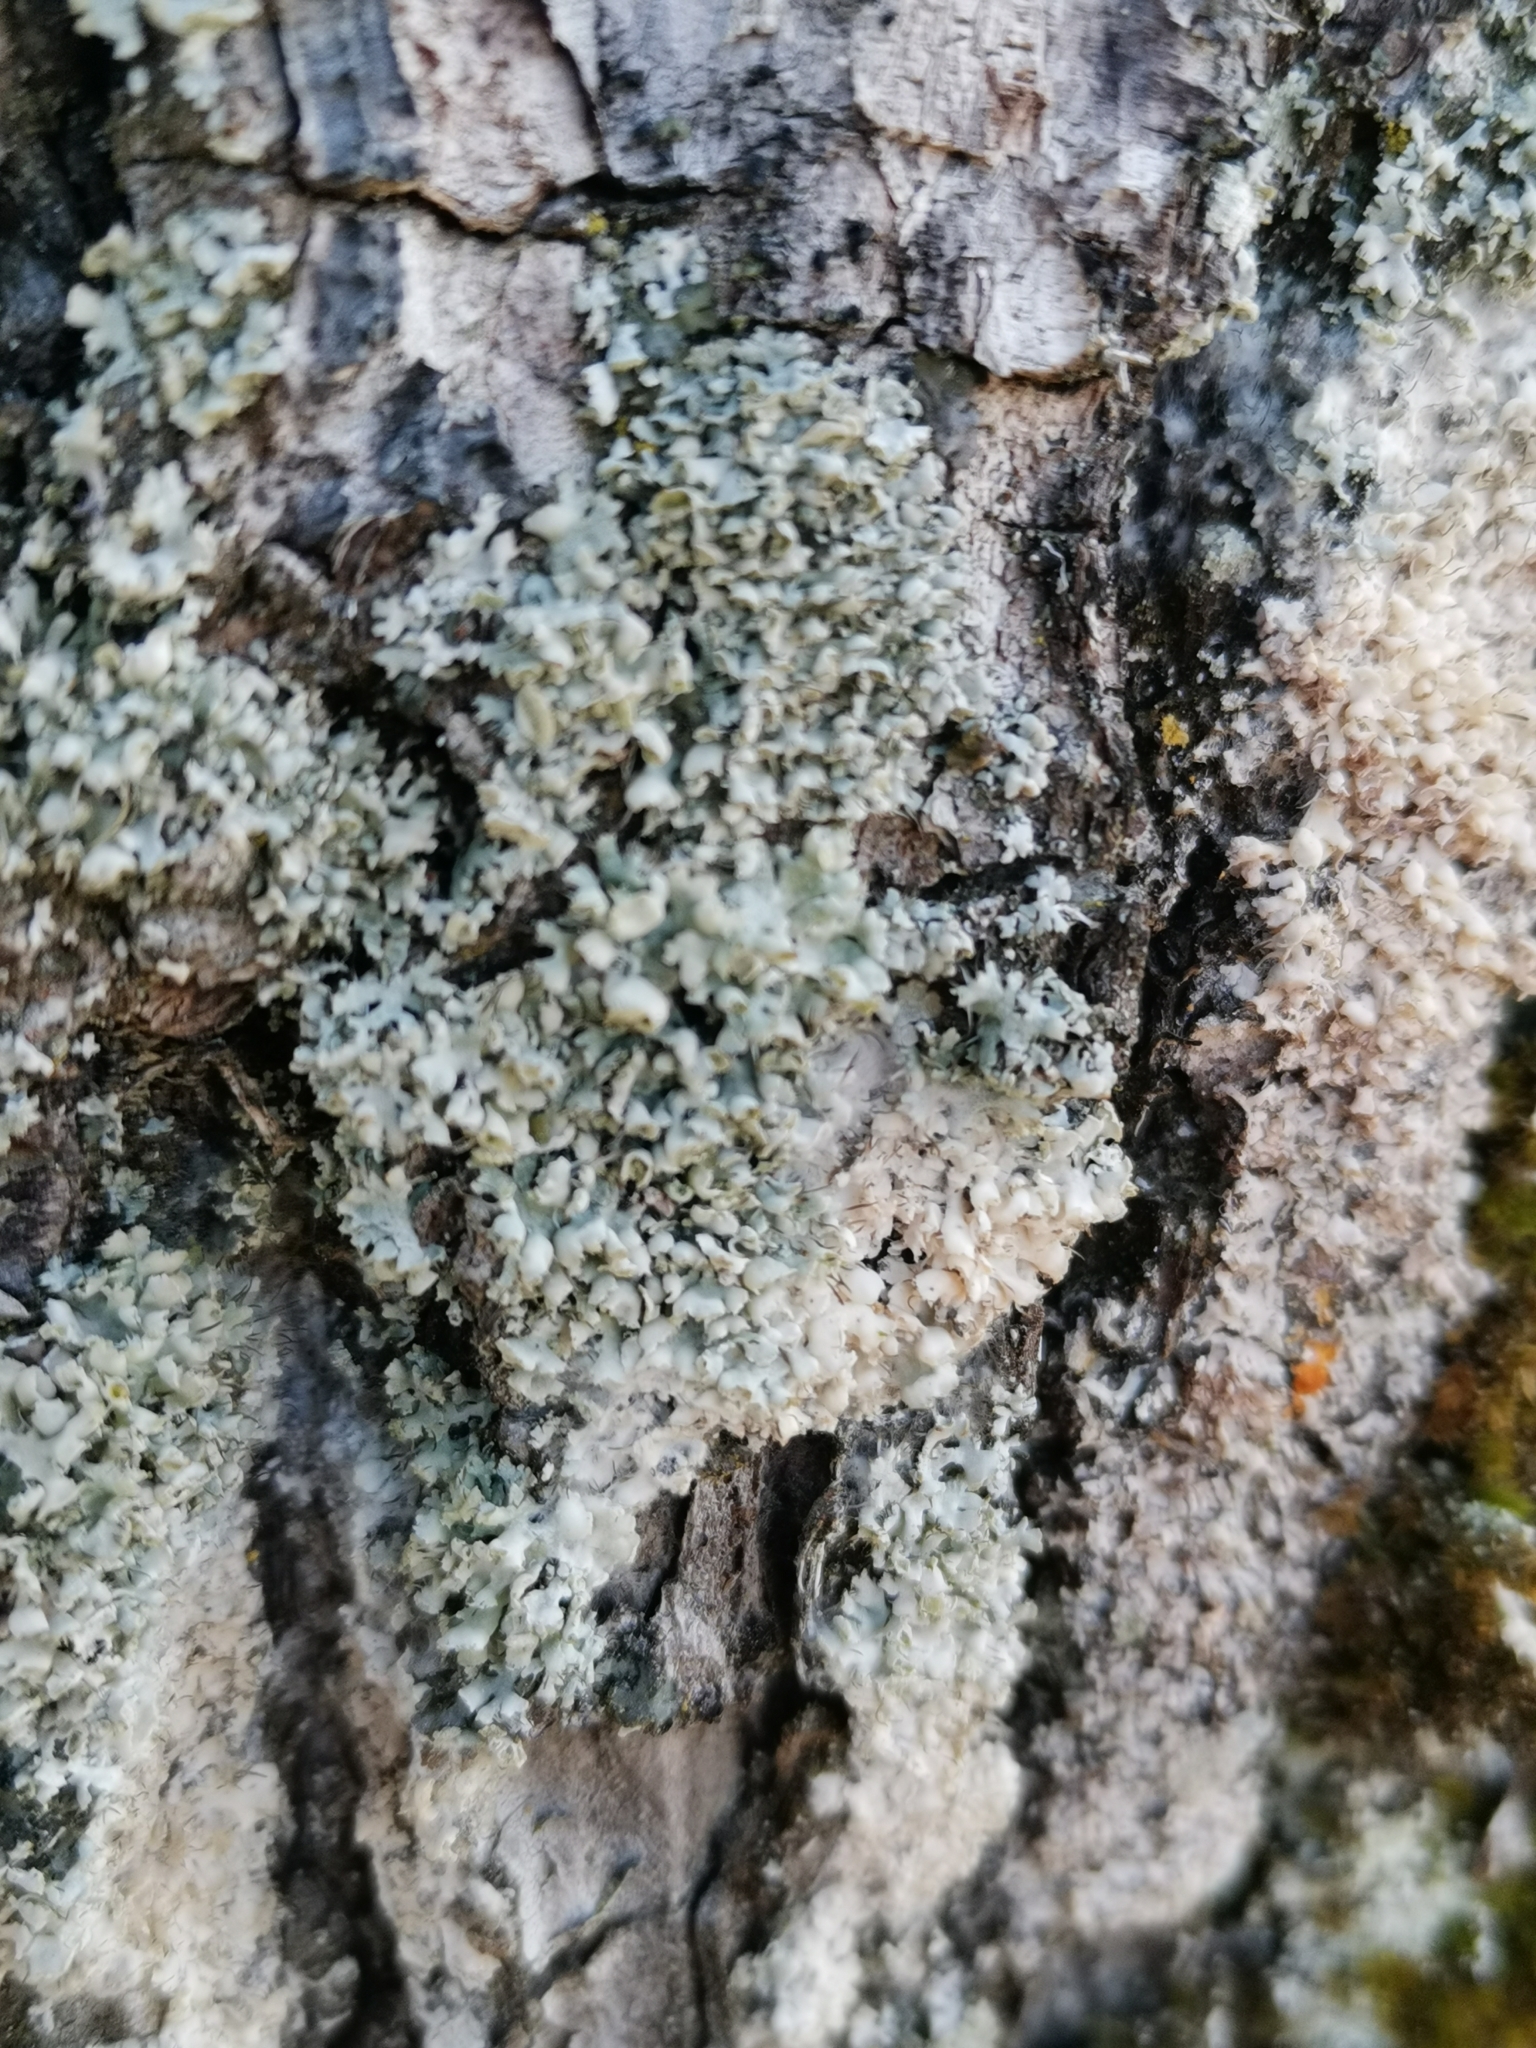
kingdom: Fungi
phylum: Ascomycota
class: Lecanoromycetes
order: Caliciales
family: Physciaceae
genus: Physcia
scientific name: Physcia adscendens
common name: Hooded rosette lichen
